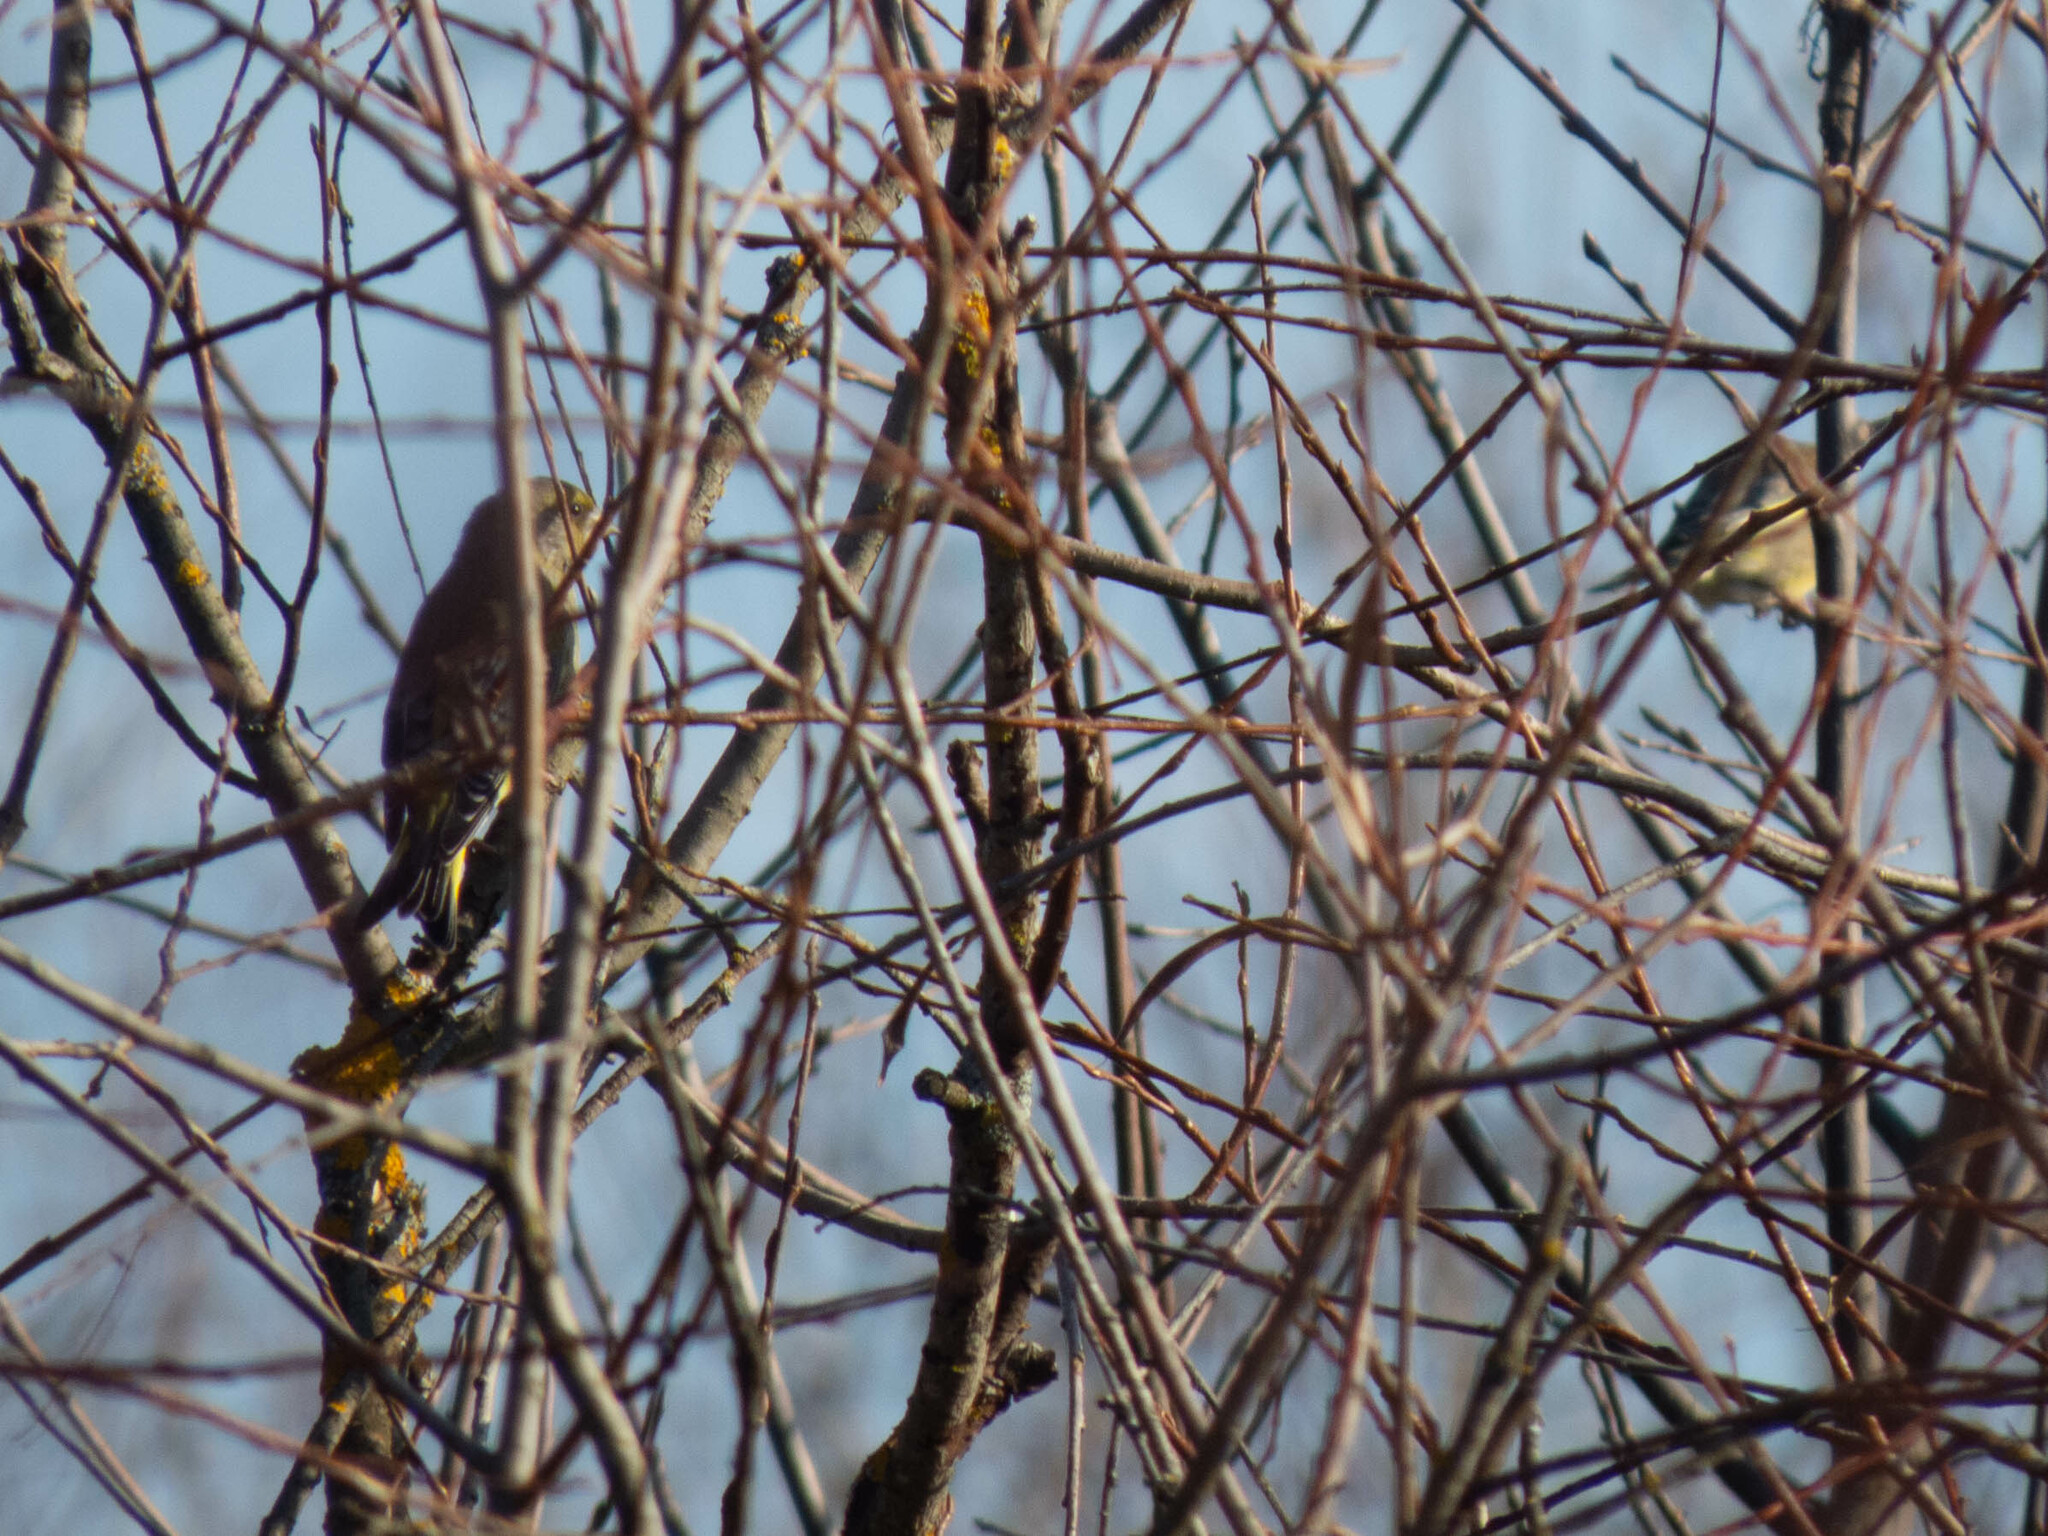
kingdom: Plantae
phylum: Tracheophyta
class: Liliopsida
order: Poales
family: Poaceae
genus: Chloris
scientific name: Chloris chloris
